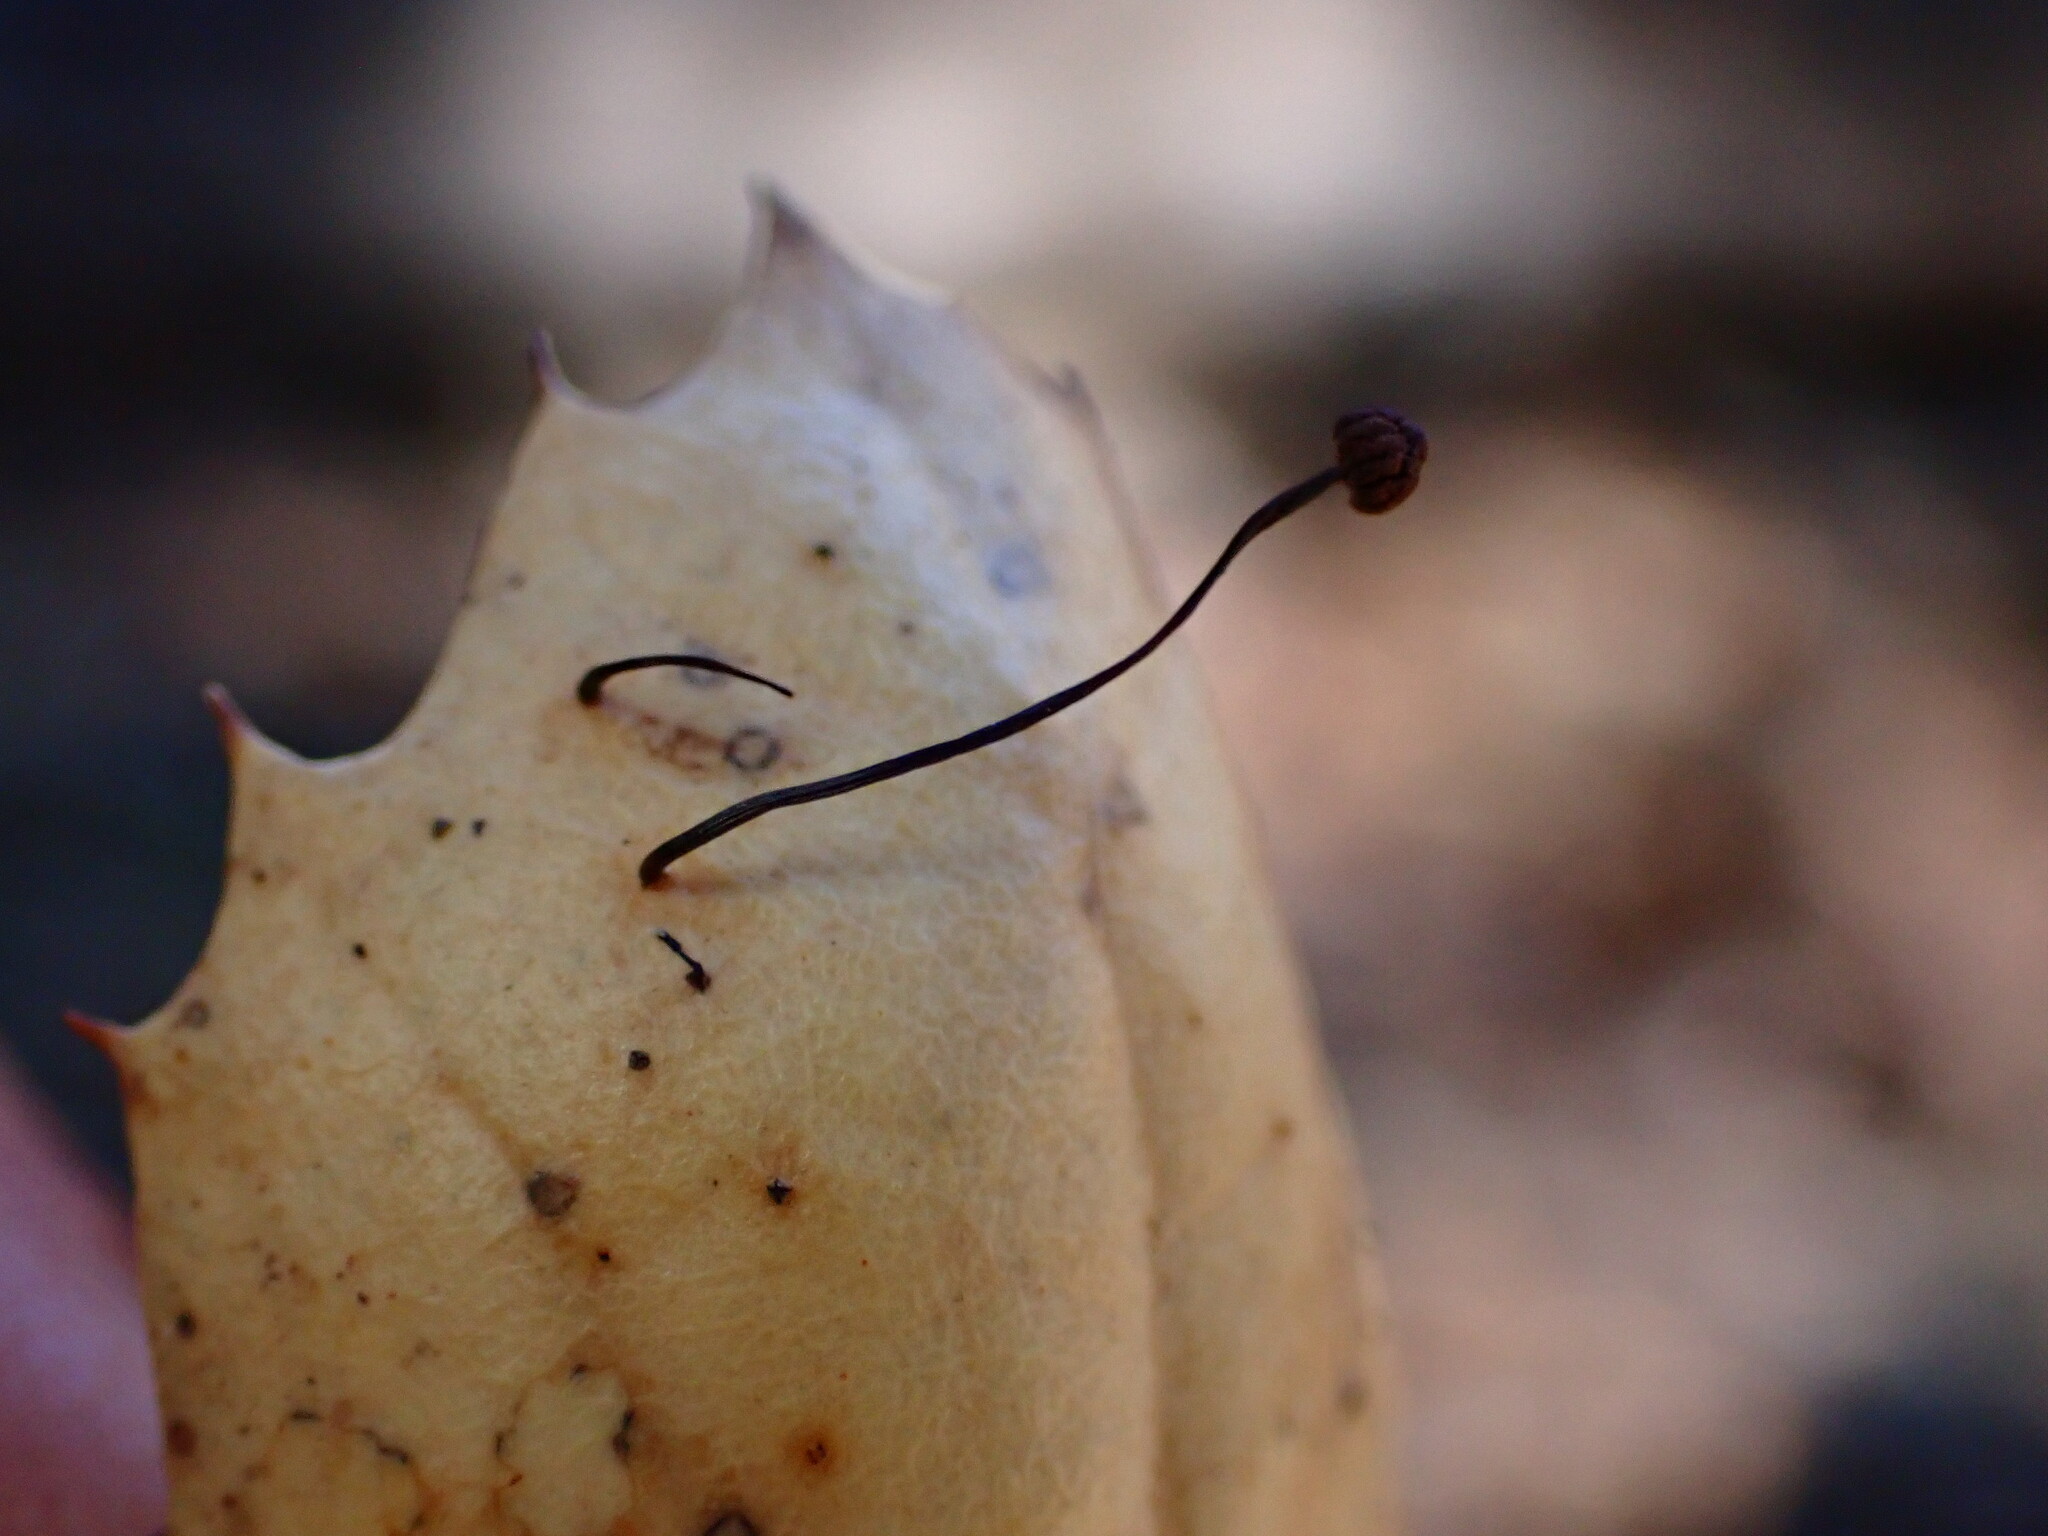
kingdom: Fungi
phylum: Basidiomycota
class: Agaricomycetes
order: Agaricales
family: Omphalotaceae
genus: Collybiopsis
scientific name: Collybiopsis quercophila
